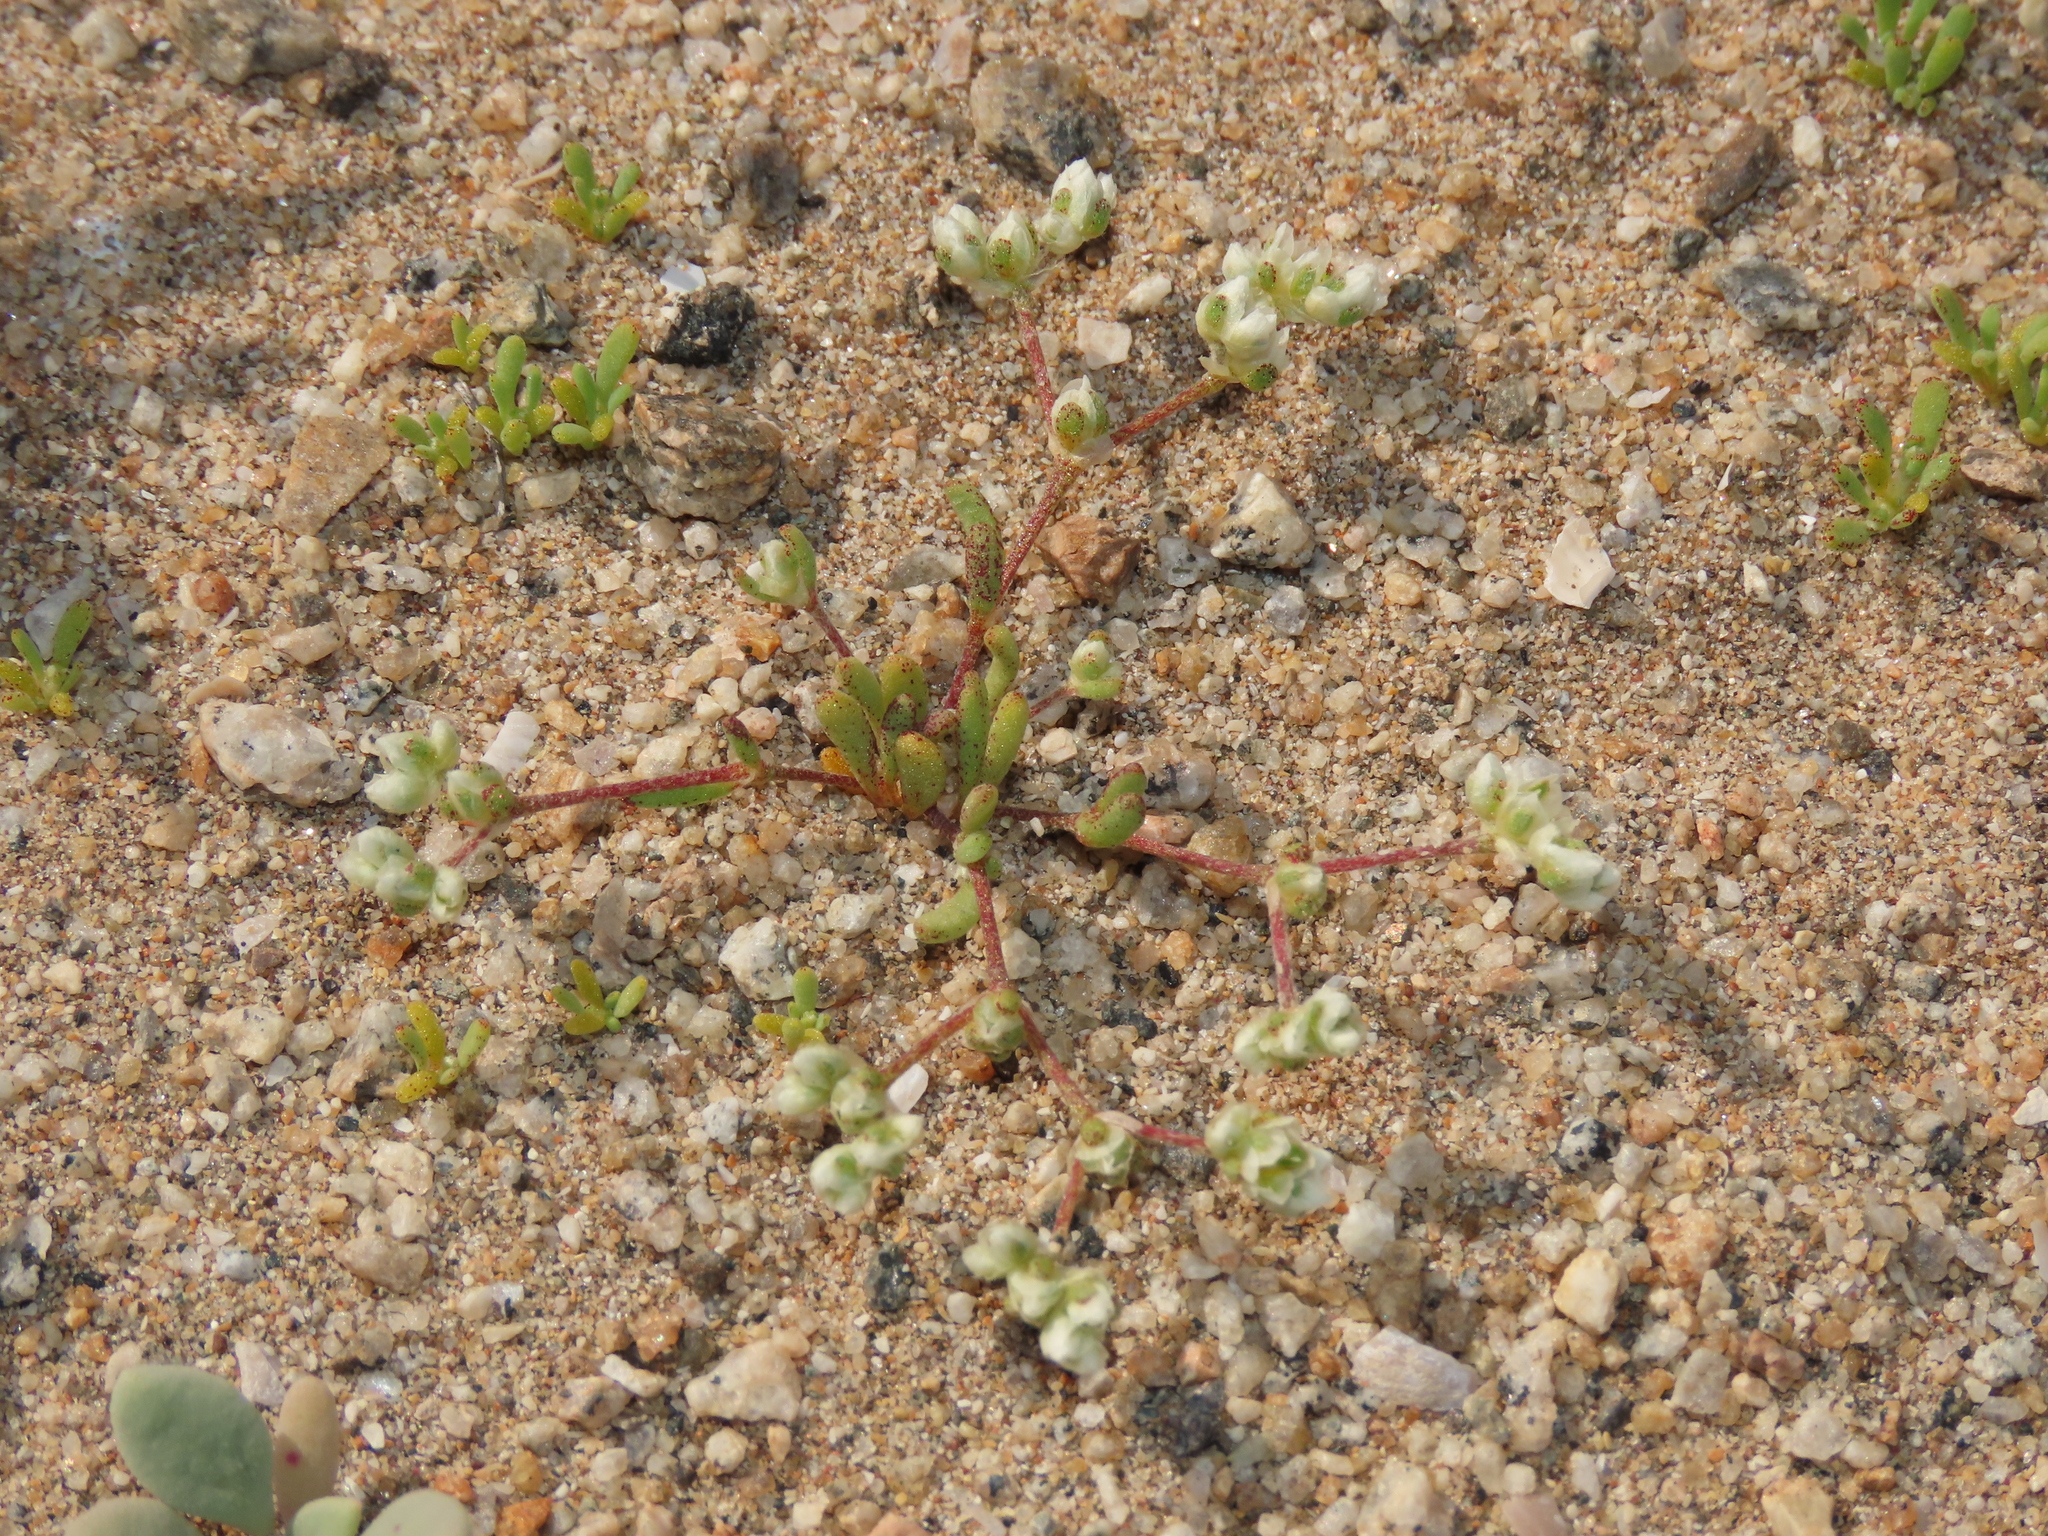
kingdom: Plantae
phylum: Tracheophyta
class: Magnoliopsida
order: Caryophyllales
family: Caryophyllaceae
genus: Microphyes
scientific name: Microphyes litoralis
